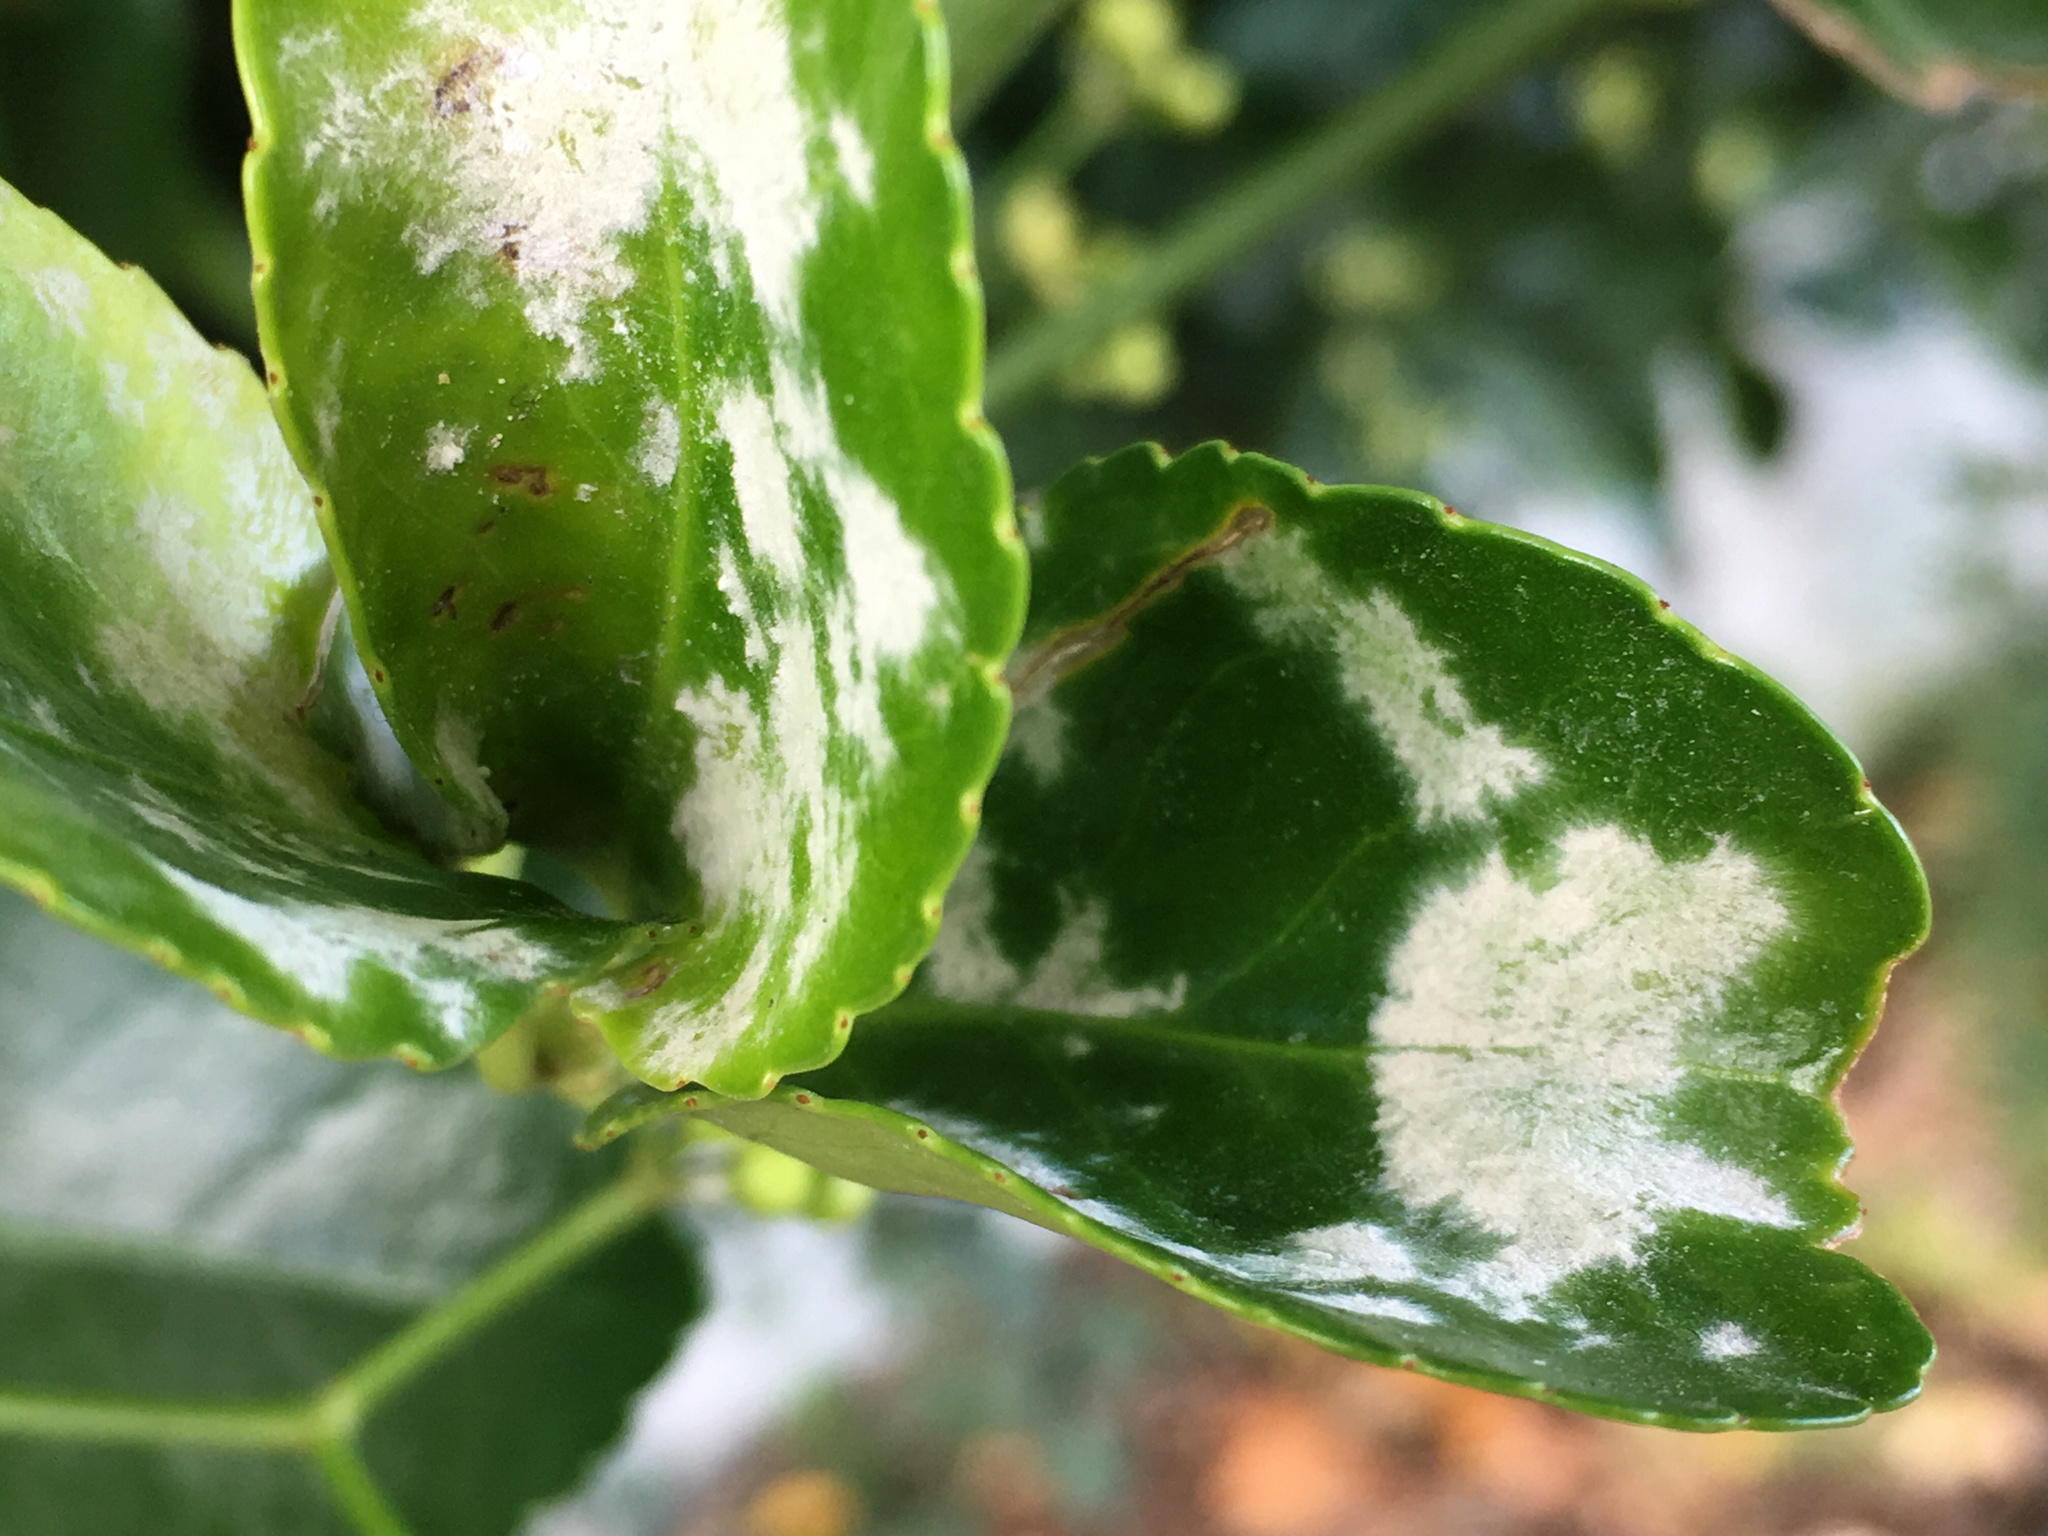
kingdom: Fungi
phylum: Ascomycota
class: Leotiomycetes
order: Helotiales
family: Erysiphaceae
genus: Erysiphe
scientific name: Erysiphe euonymicola
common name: Spindletree mildew
